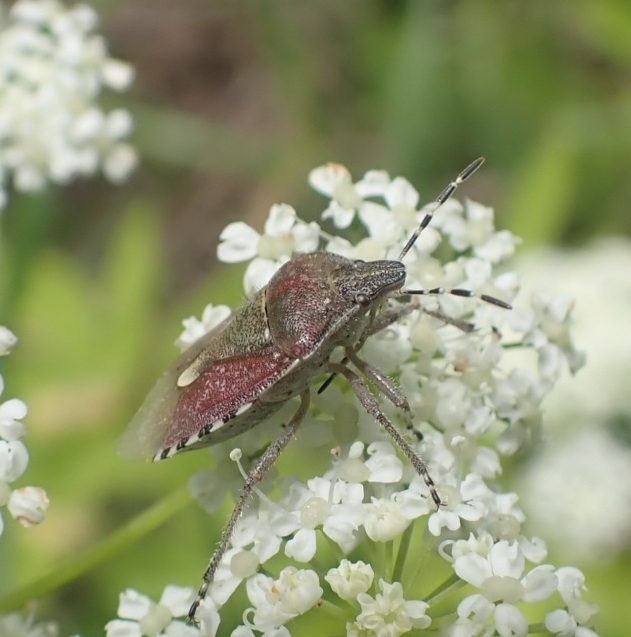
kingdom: Animalia
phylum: Arthropoda
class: Insecta
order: Hemiptera
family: Pentatomidae
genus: Dolycoris
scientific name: Dolycoris baccarum
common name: Sloe bug
